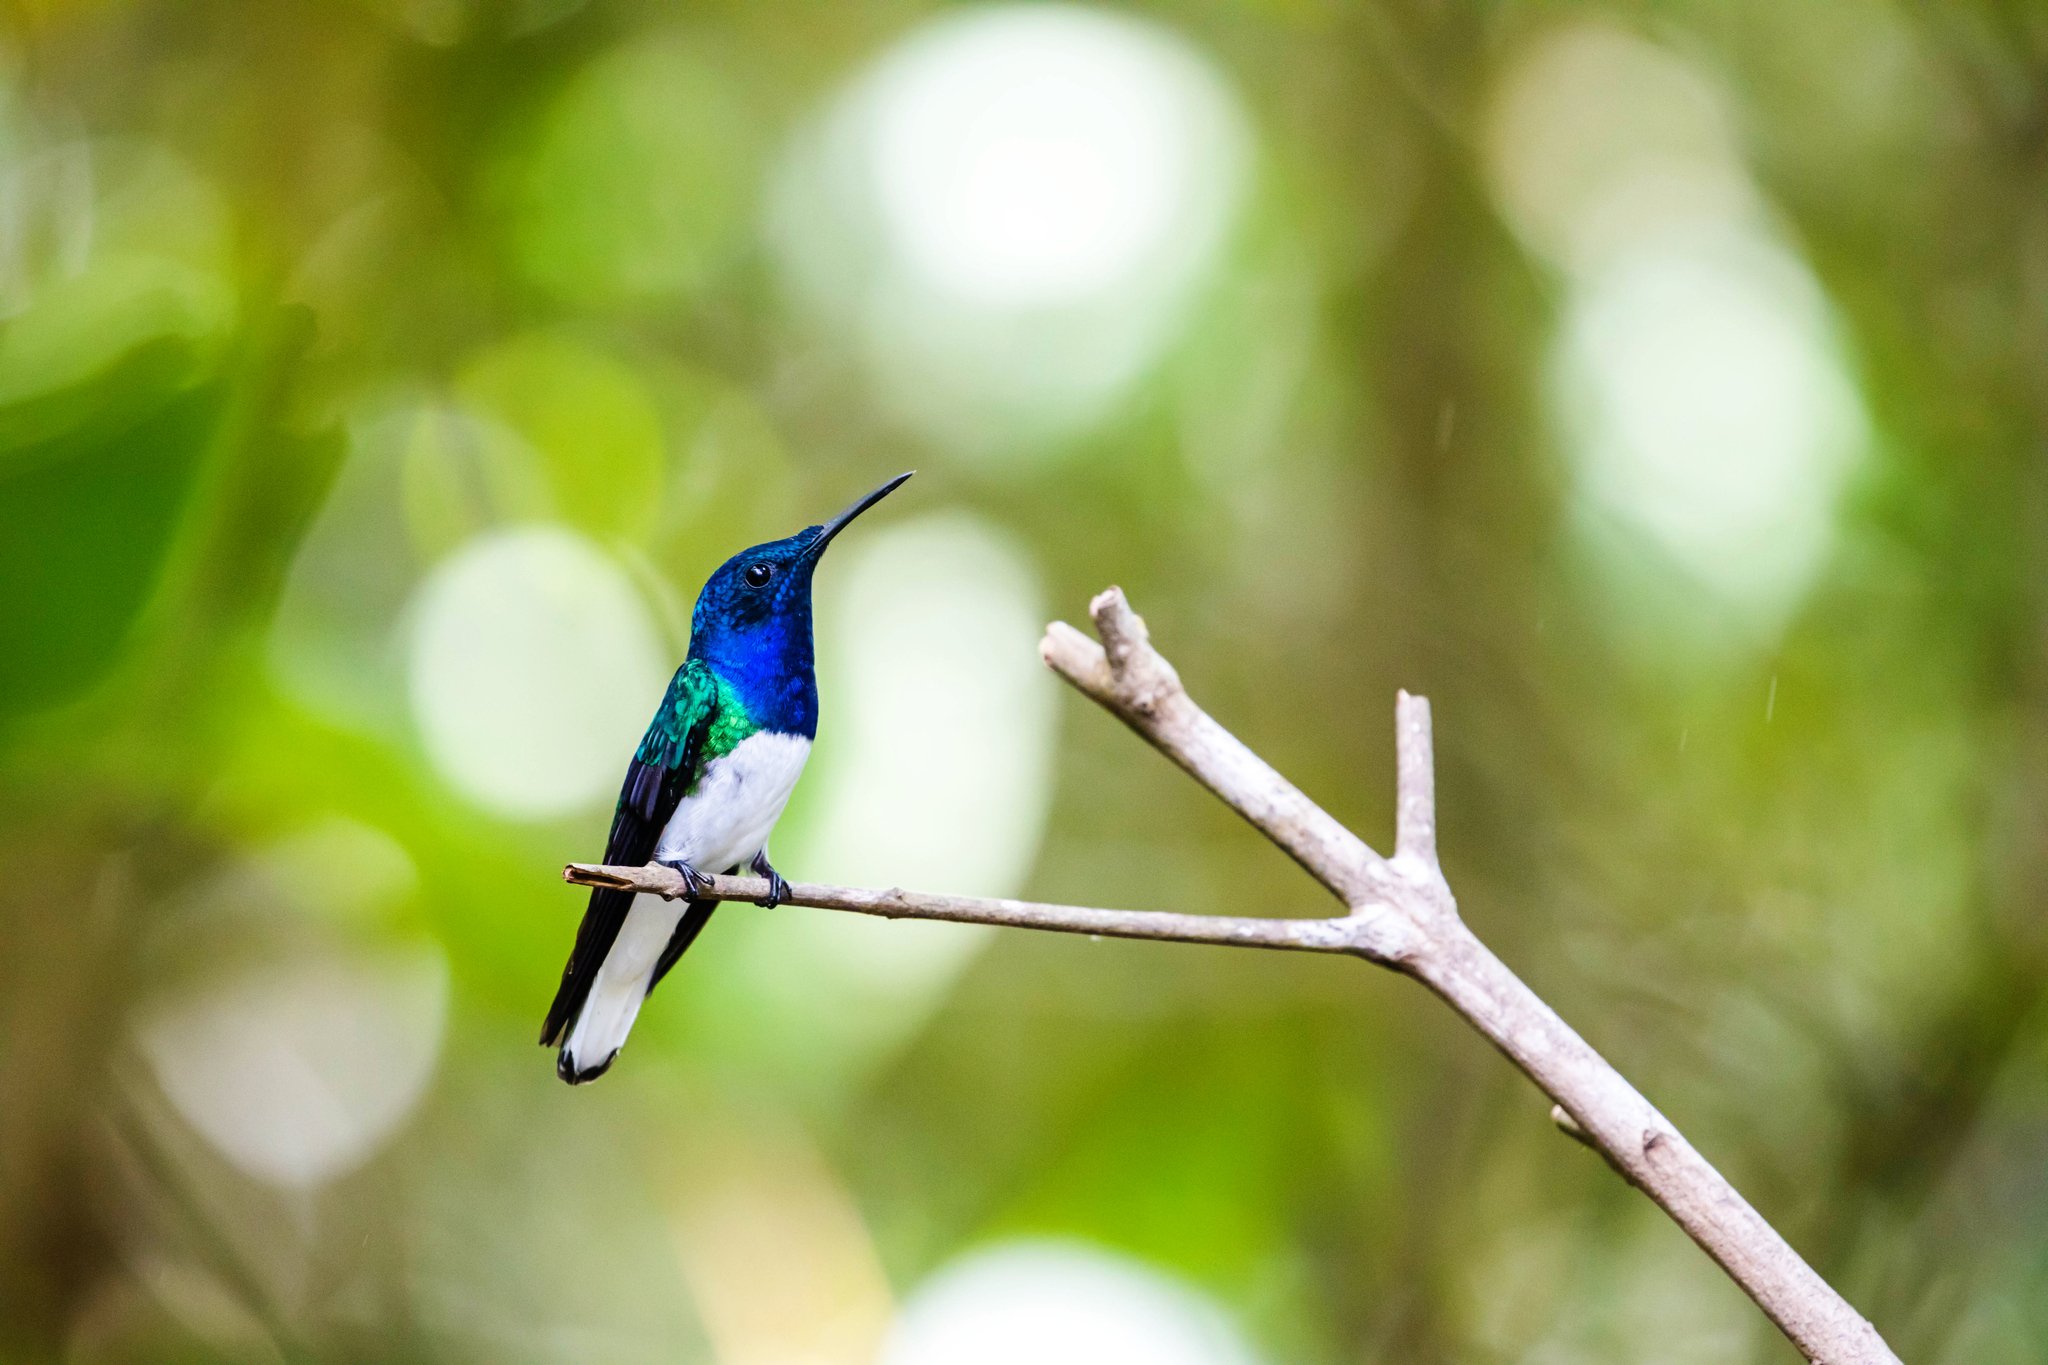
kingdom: Animalia
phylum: Chordata
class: Aves
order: Apodiformes
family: Trochilidae
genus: Florisuga
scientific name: Florisuga mellivora
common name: White-necked jacobin
